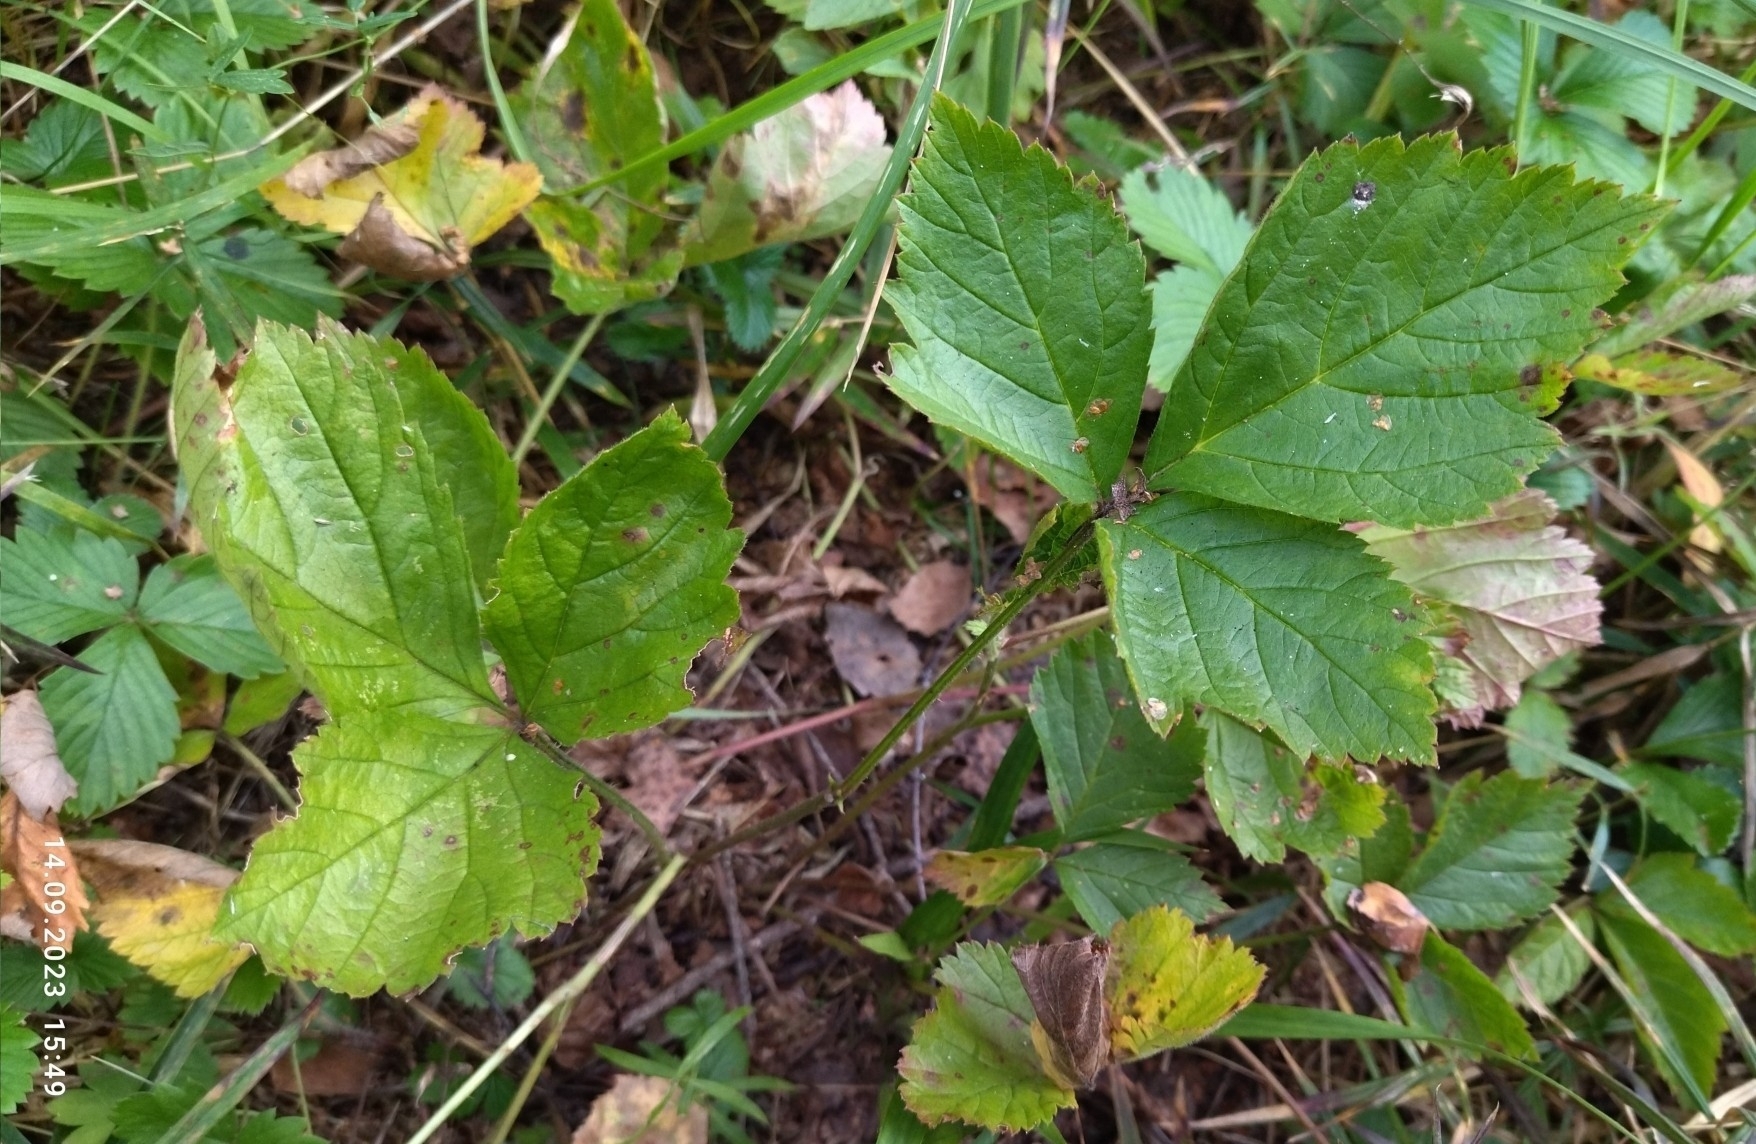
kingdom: Plantae
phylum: Tracheophyta
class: Magnoliopsida
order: Rosales
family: Rosaceae
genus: Rubus
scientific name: Rubus saxatilis
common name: Stone bramble
